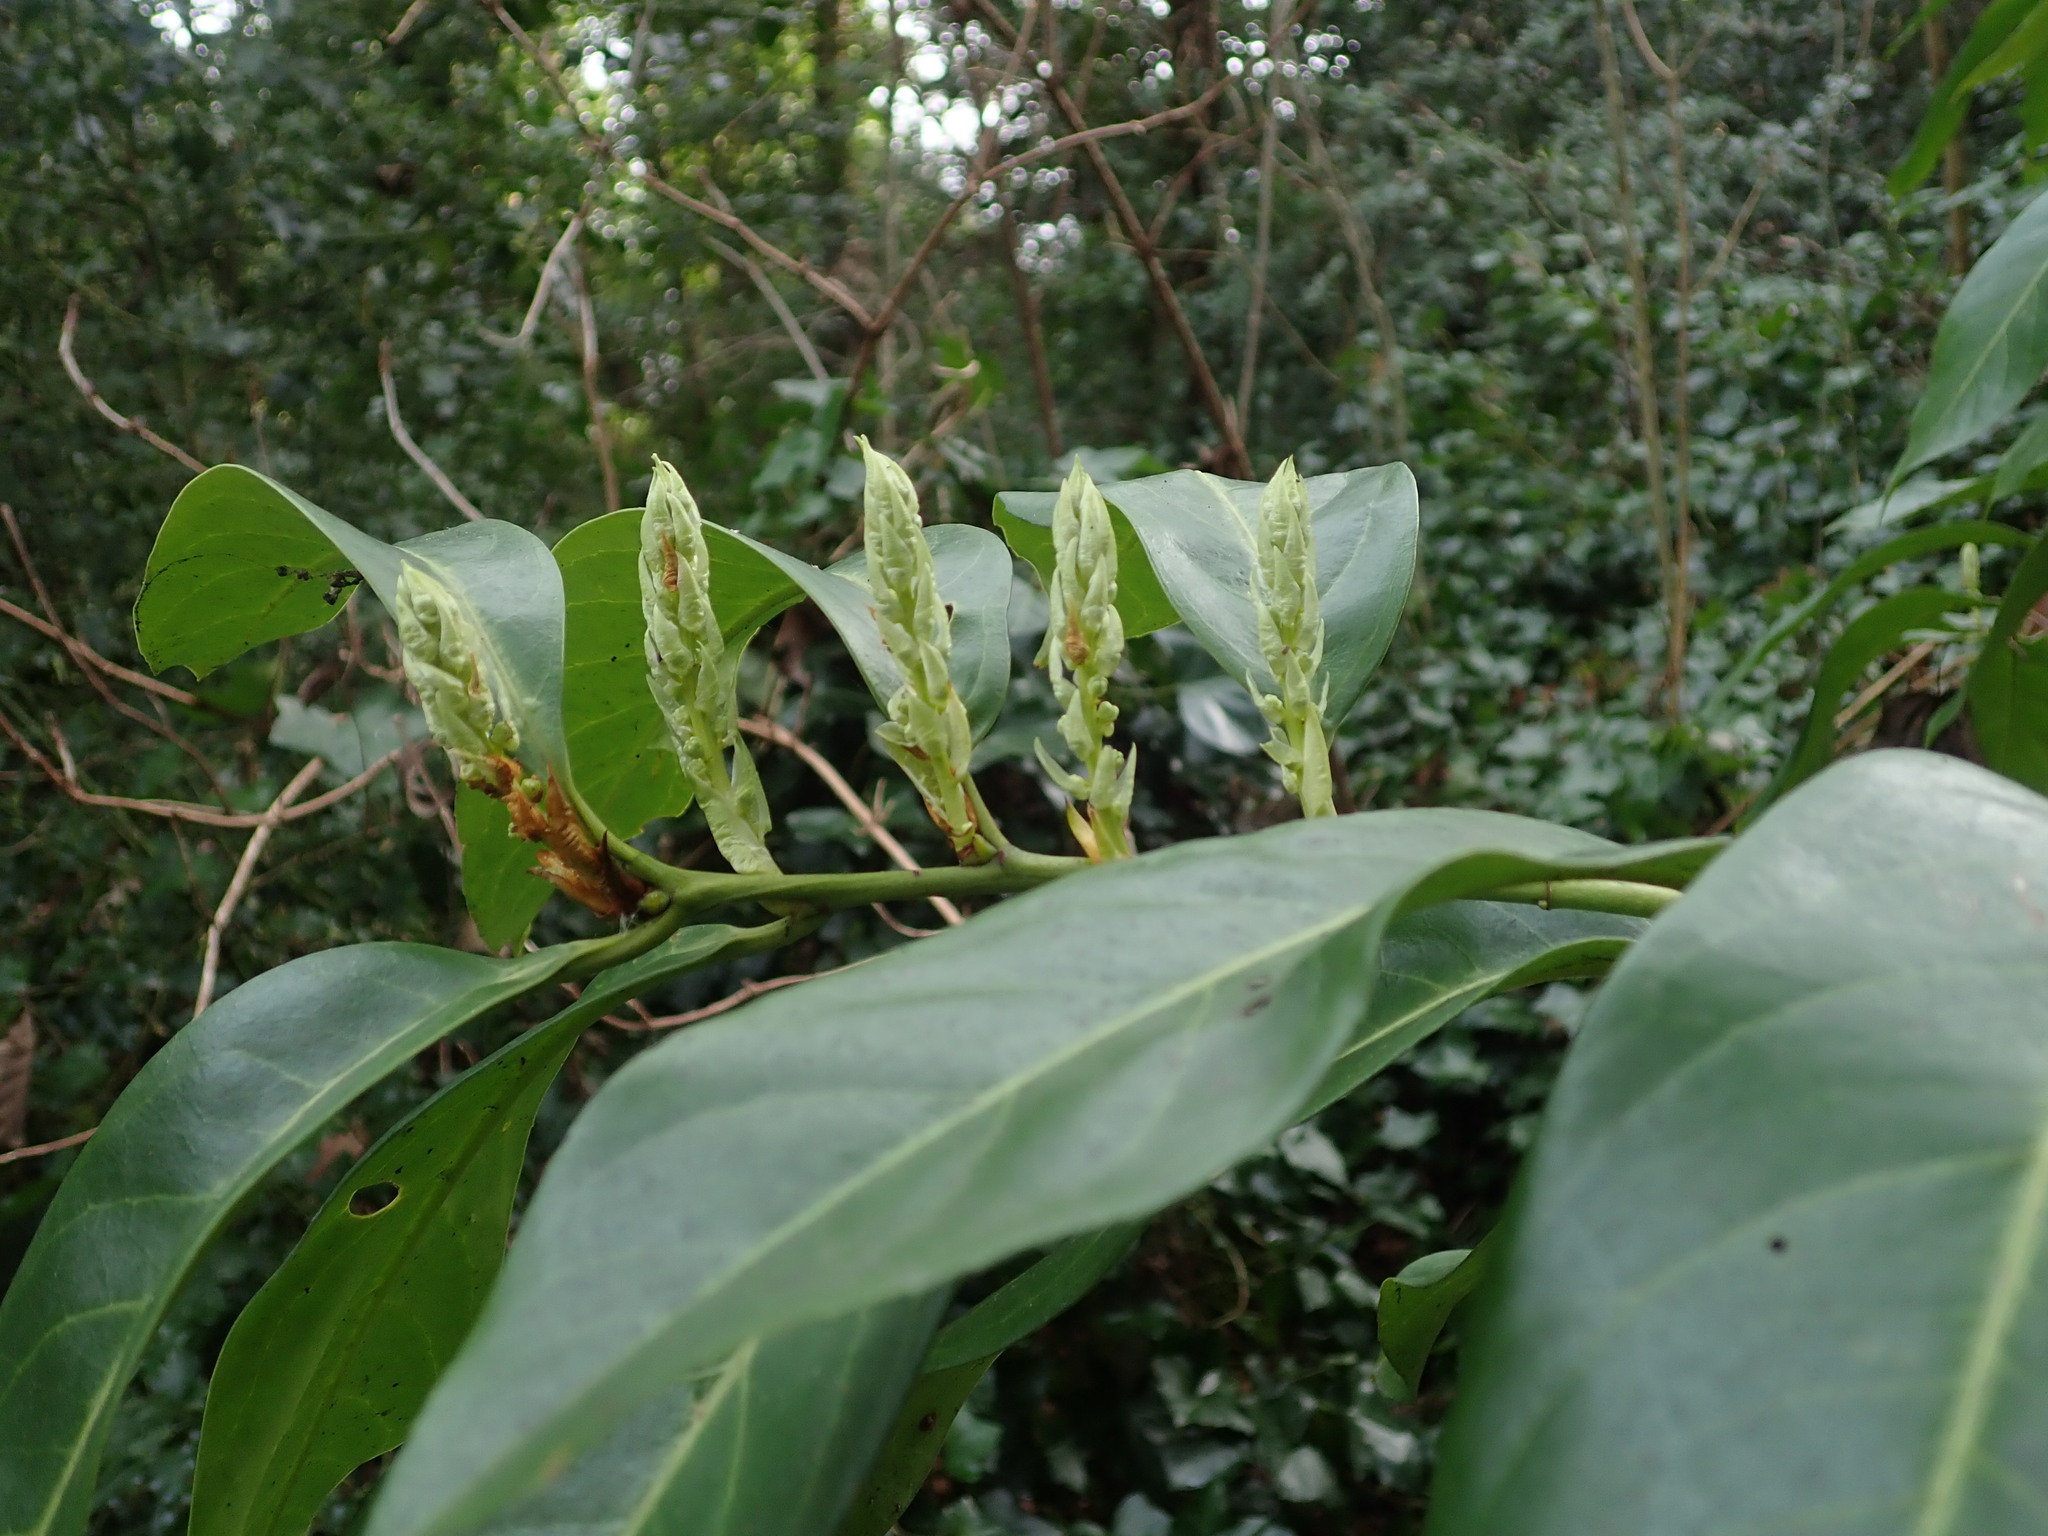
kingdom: Plantae
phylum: Tracheophyta
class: Magnoliopsida
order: Rosales
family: Rosaceae
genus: Prunus
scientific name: Prunus laurocerasus
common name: Cherry laurel
